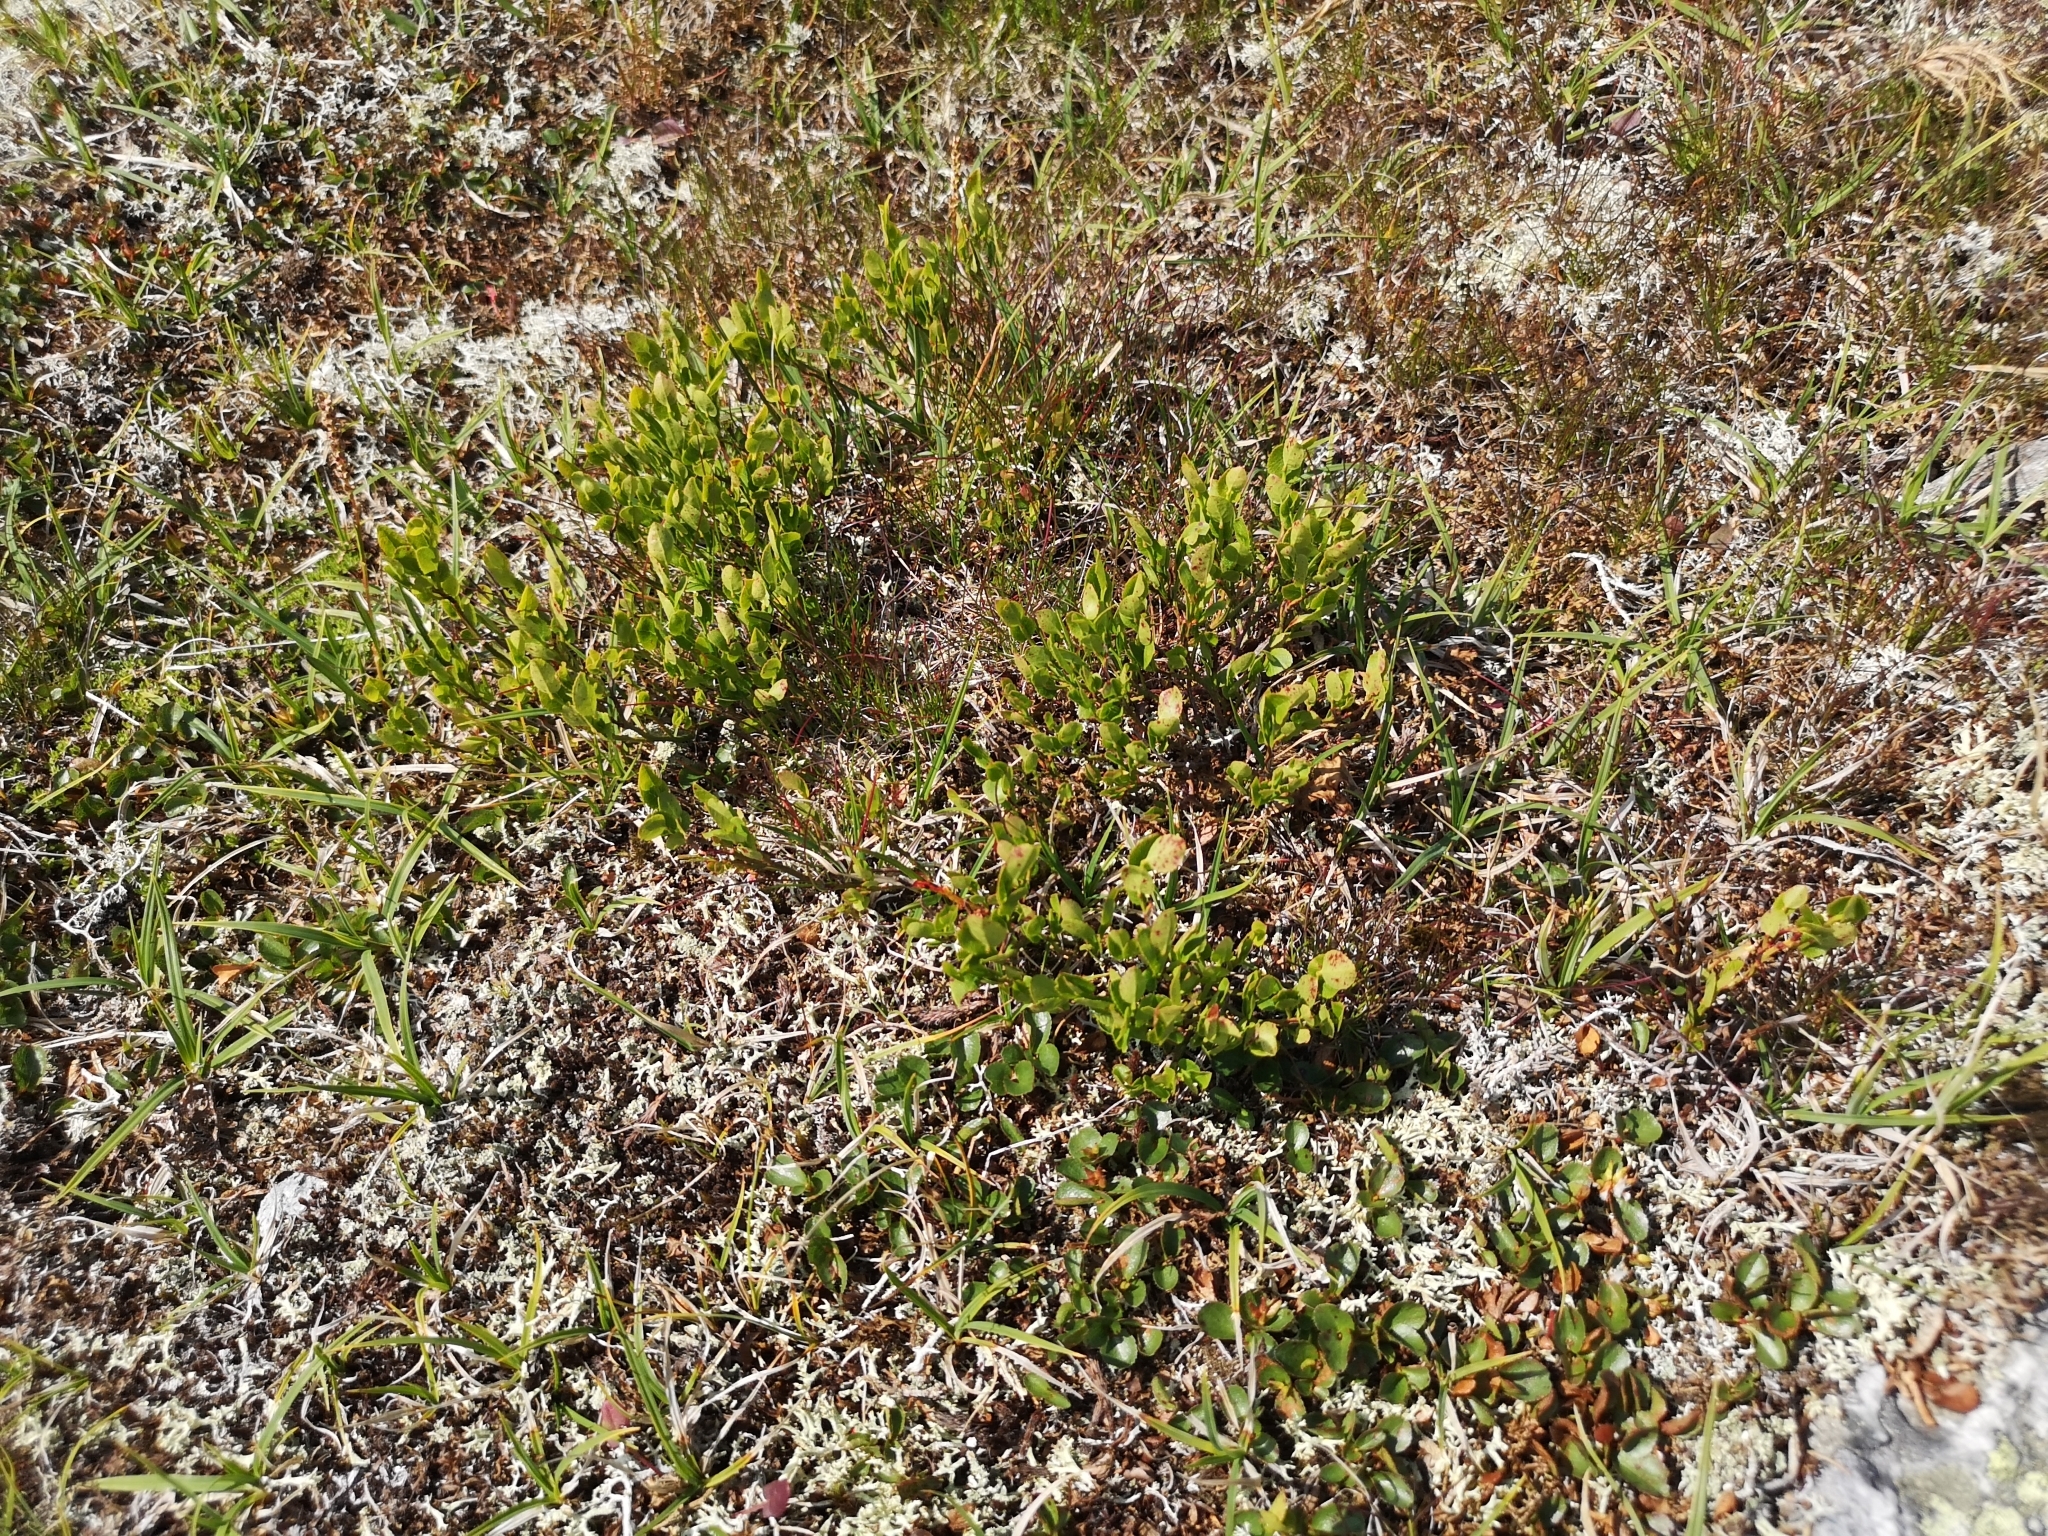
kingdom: Plantae
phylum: Tracheophyta
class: Magnoliopsida
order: Ericales
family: Ericaceae
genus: Vaccinium
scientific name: Vaccinium myrtillus
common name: Bilberry
